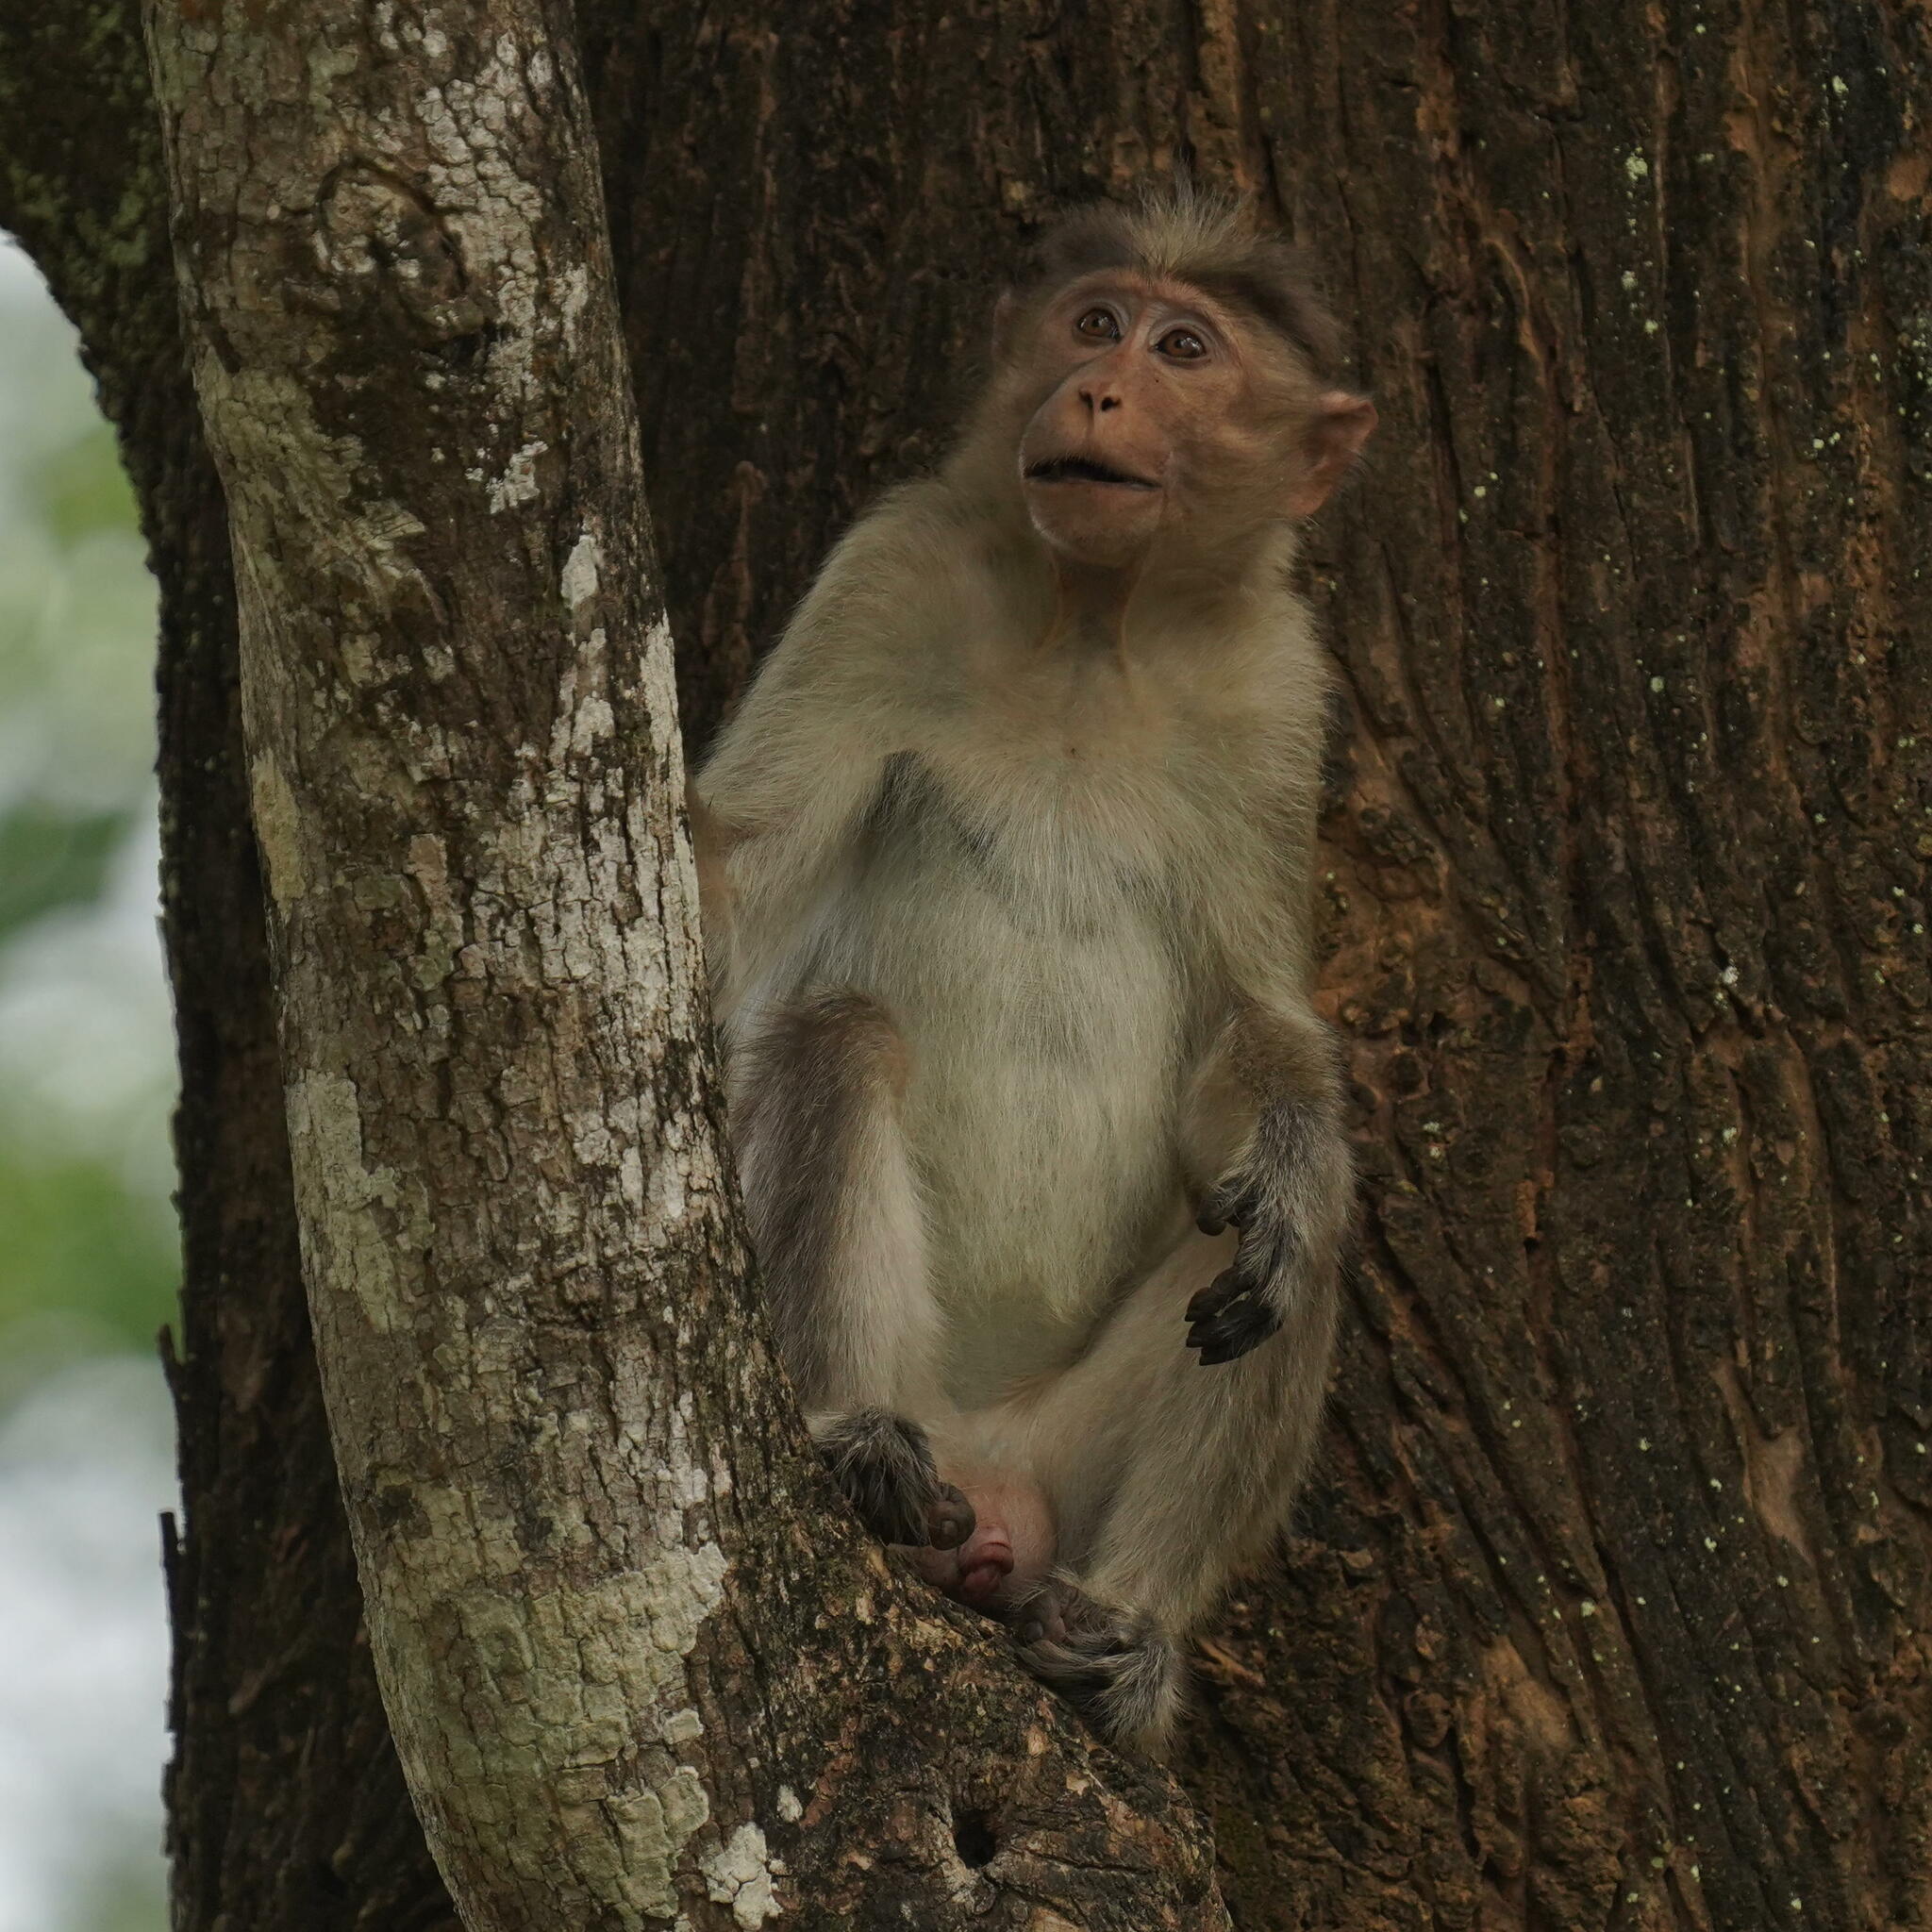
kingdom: Animalia
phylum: Chordata
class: Mammalia
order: Primates
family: Cercopithecidae
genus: Macaca
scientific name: Macaca radiata
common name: Bonnet macaque
